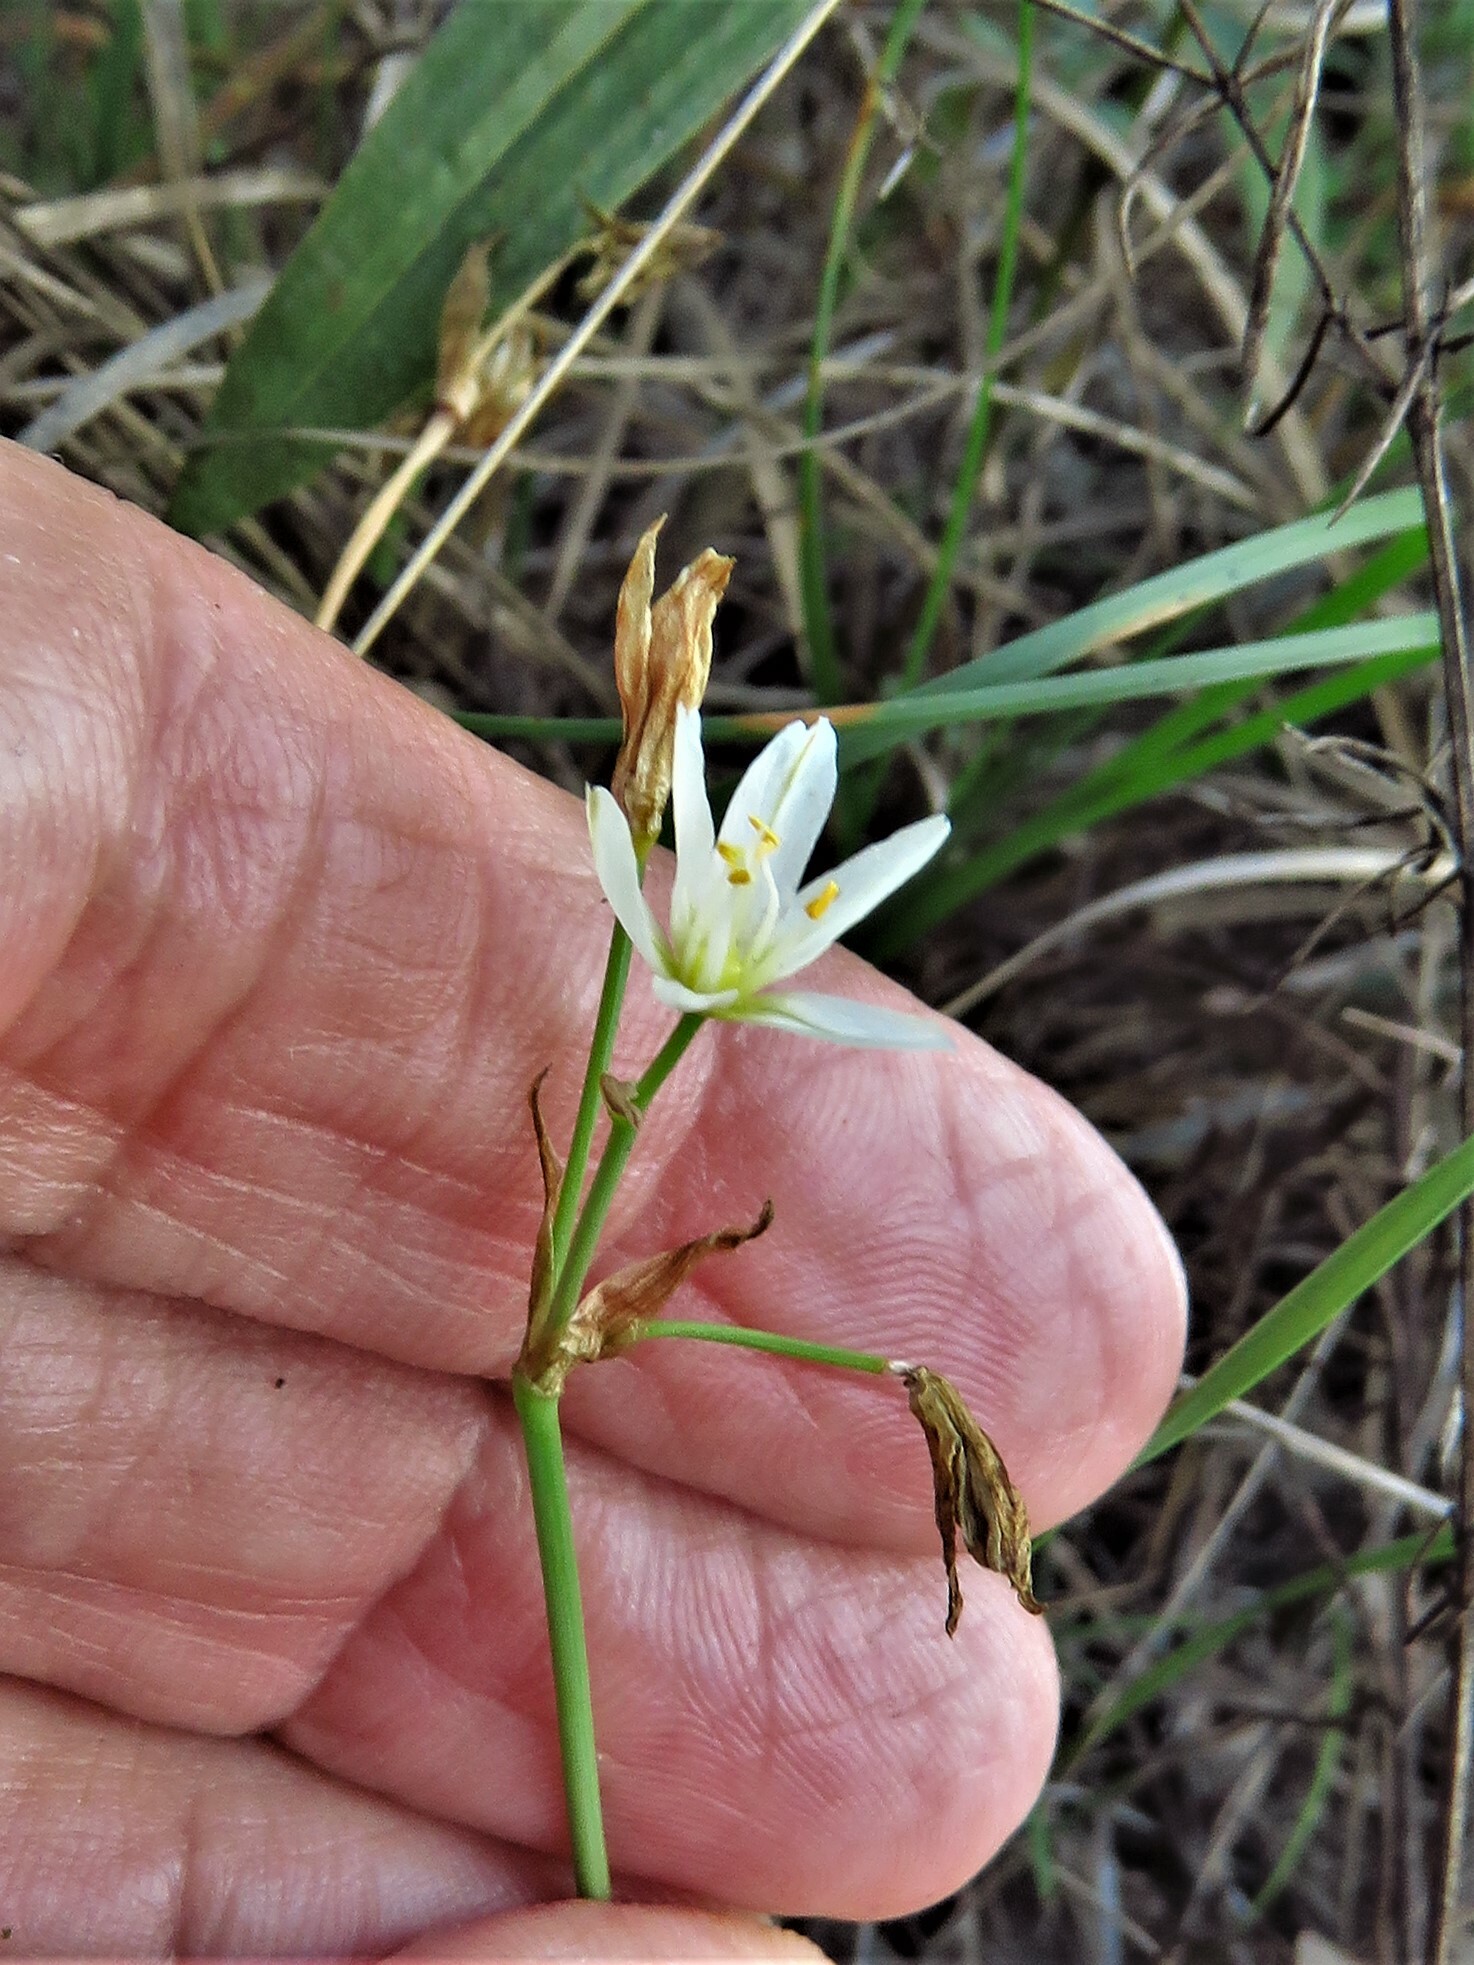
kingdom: Plantae
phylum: Tracheophyta
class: Liliopsida
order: Asparagales
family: Amaryllidaceae
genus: Nothoscordum
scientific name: Nothoscordum bivalve
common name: Crow-poison
